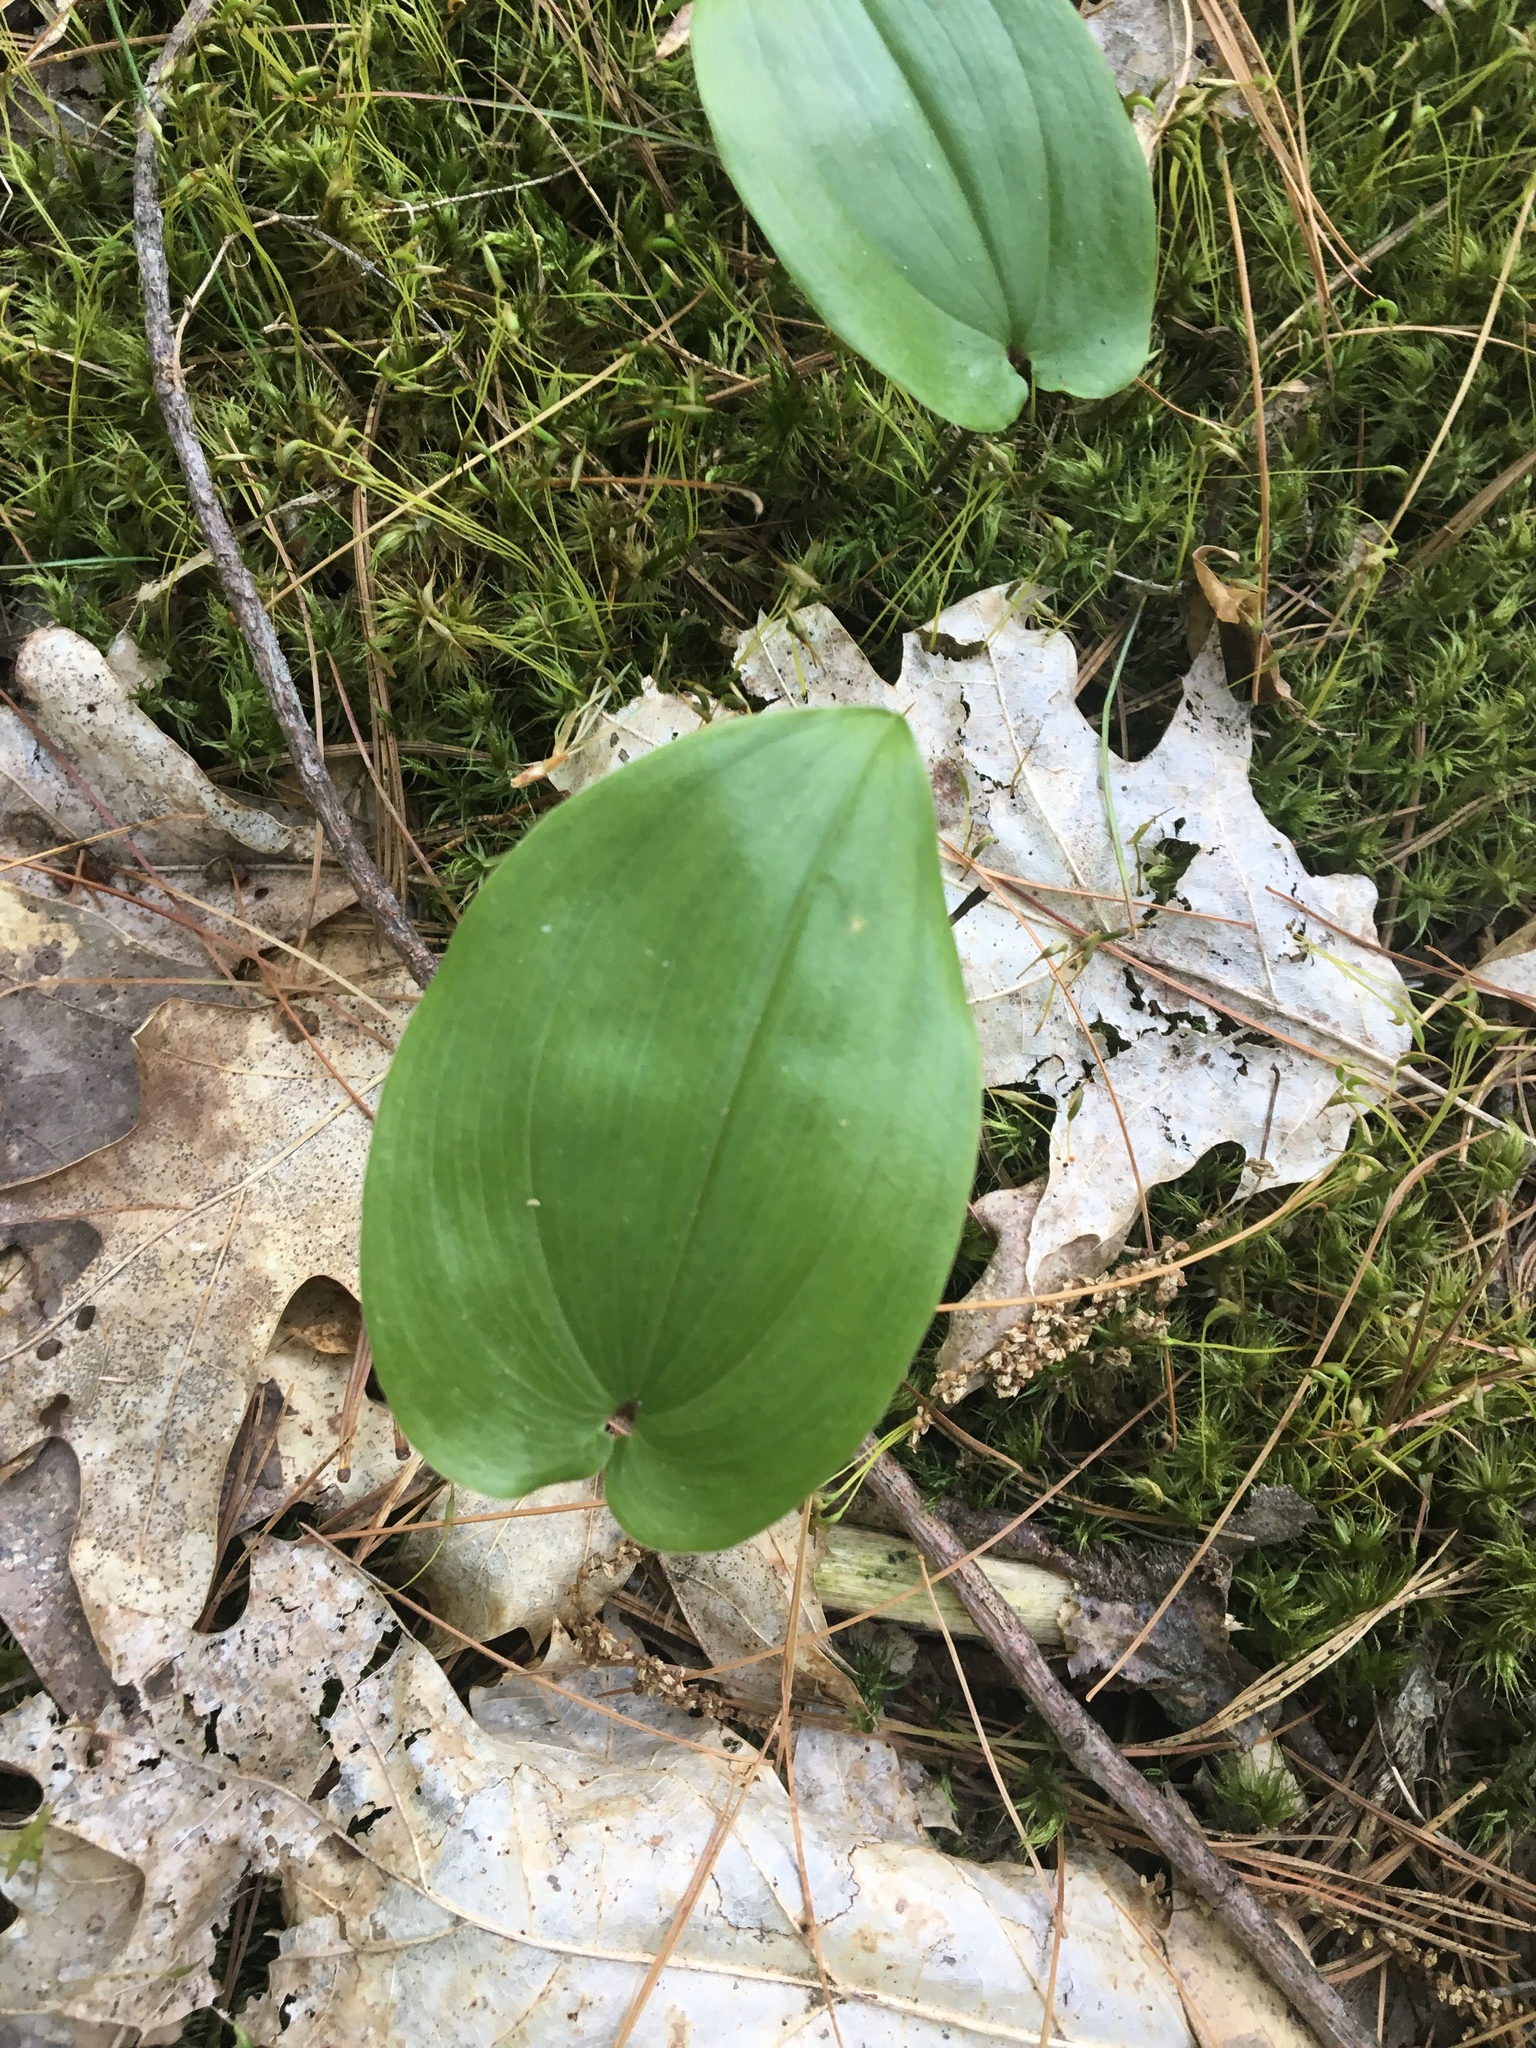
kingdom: Plantae
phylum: Tracheophyta
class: Liliopsida
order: Asparagales
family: Asparagaceae
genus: Maianthemum
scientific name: Maianthemum canadense
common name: False lily-of-the-valley
